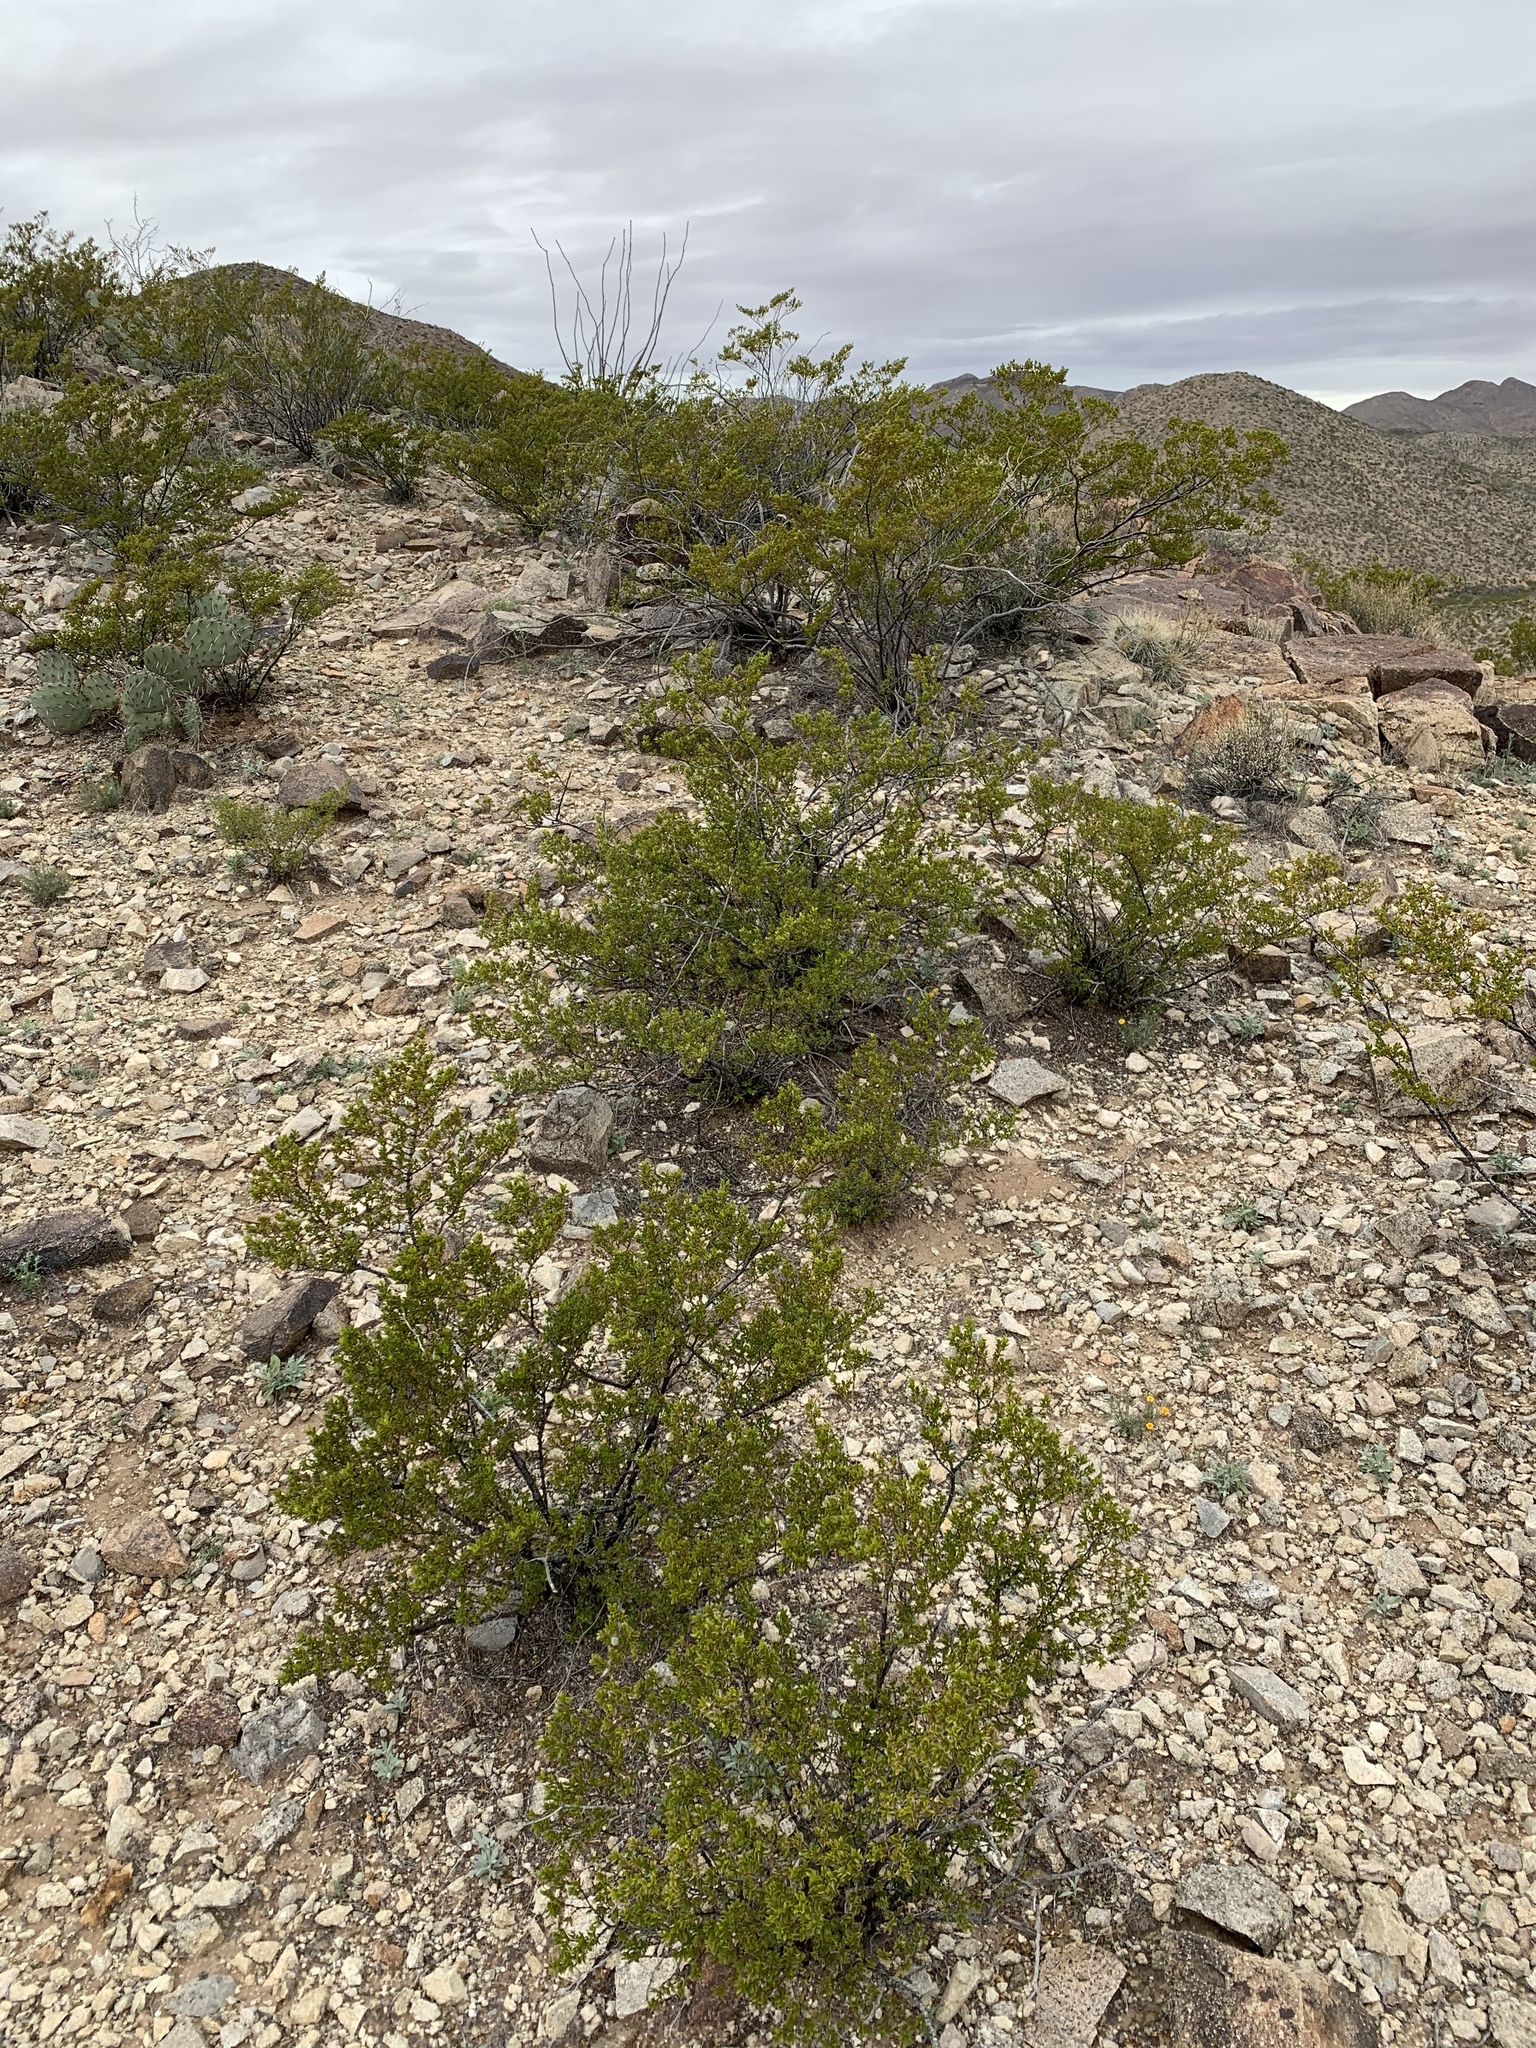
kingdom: Plantae
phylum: Tracheophyta
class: Magnoliopsida
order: Zygophyllales
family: Zygophyllaceae
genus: Larrea
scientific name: Larrea tridentata
